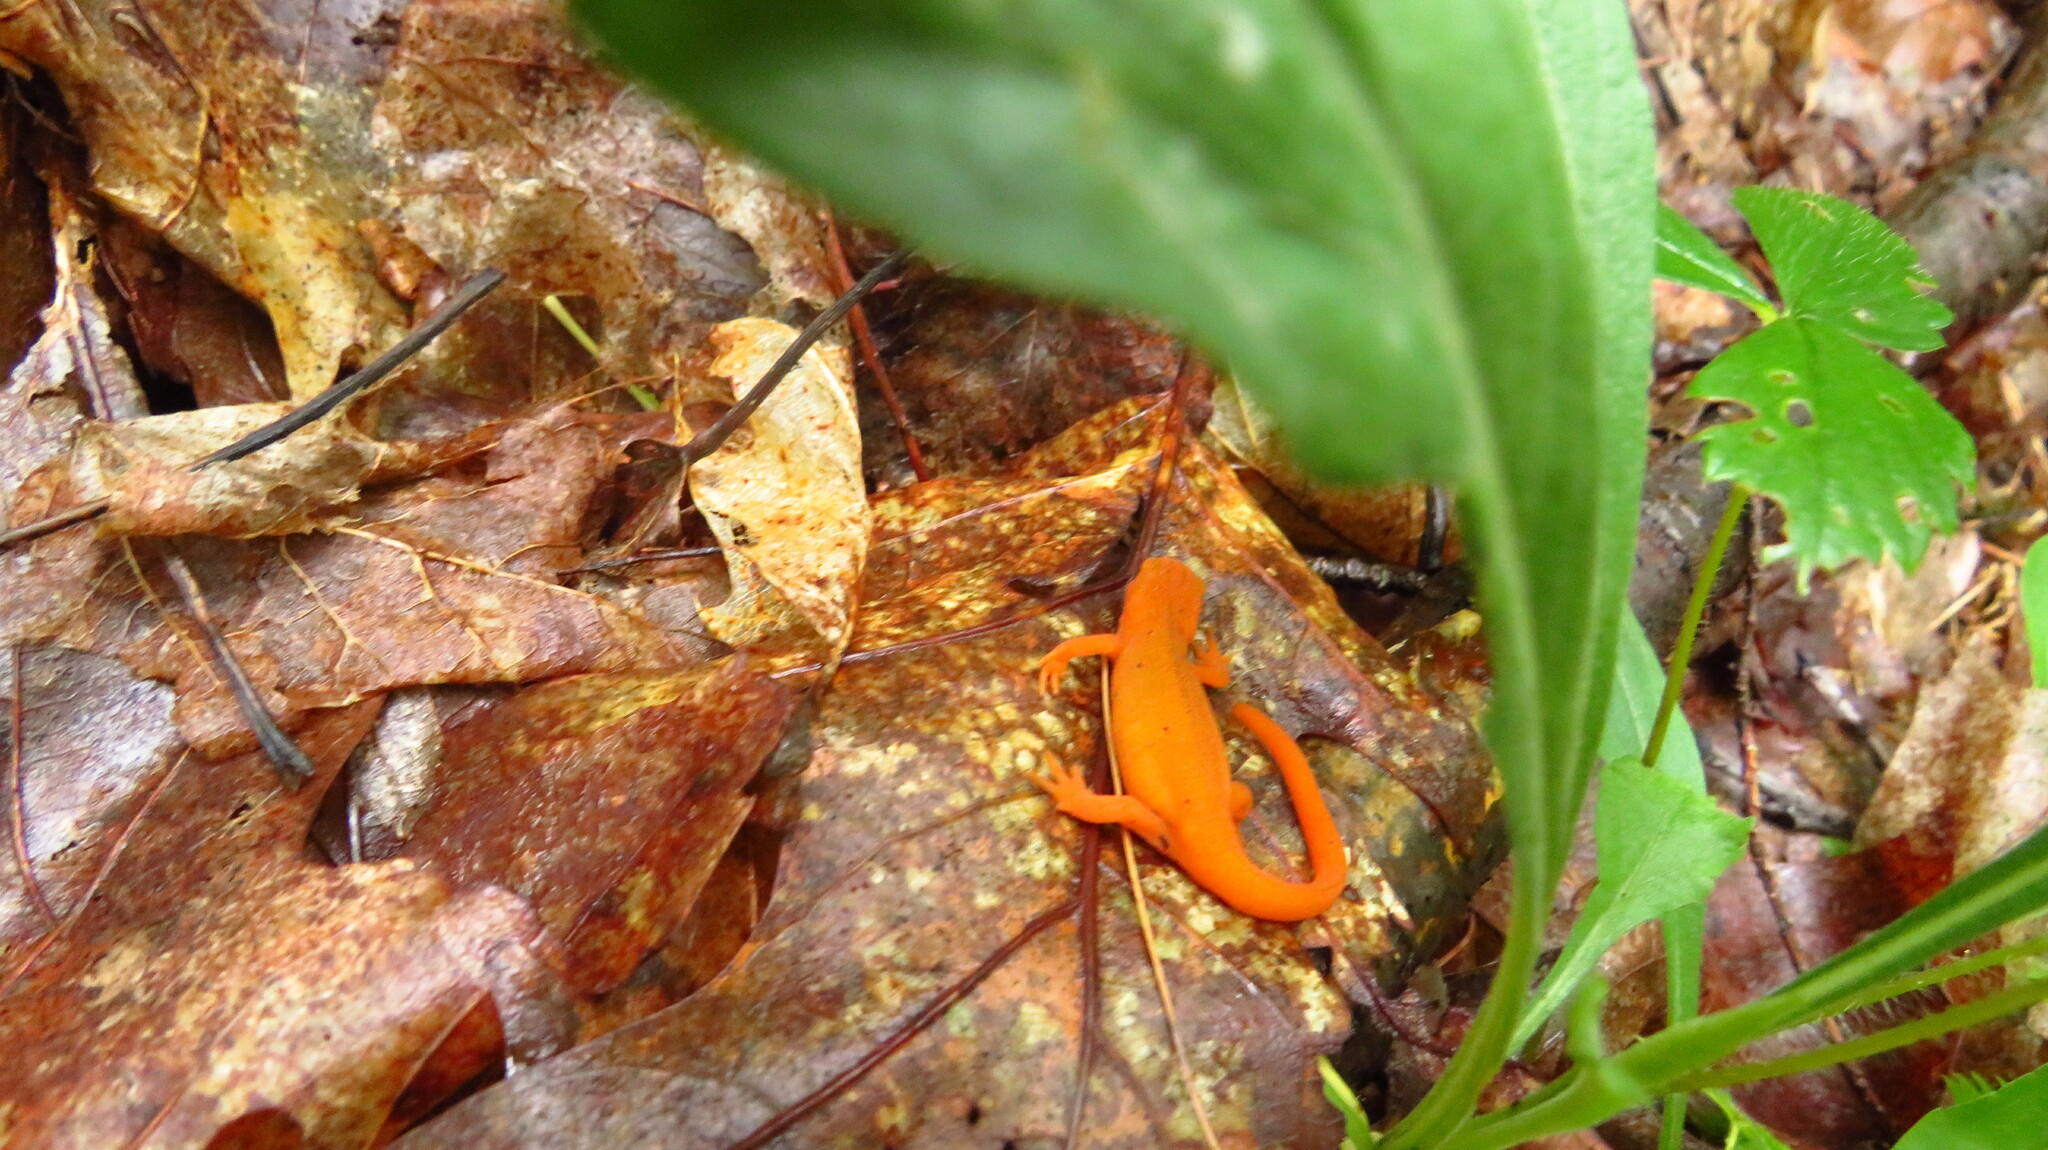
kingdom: Animalia
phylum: Chordata
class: Amphibia
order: Caudata
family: Salamandridae
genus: Notophthalmus
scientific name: Notophthalmus viridescens
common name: Eastern newt
